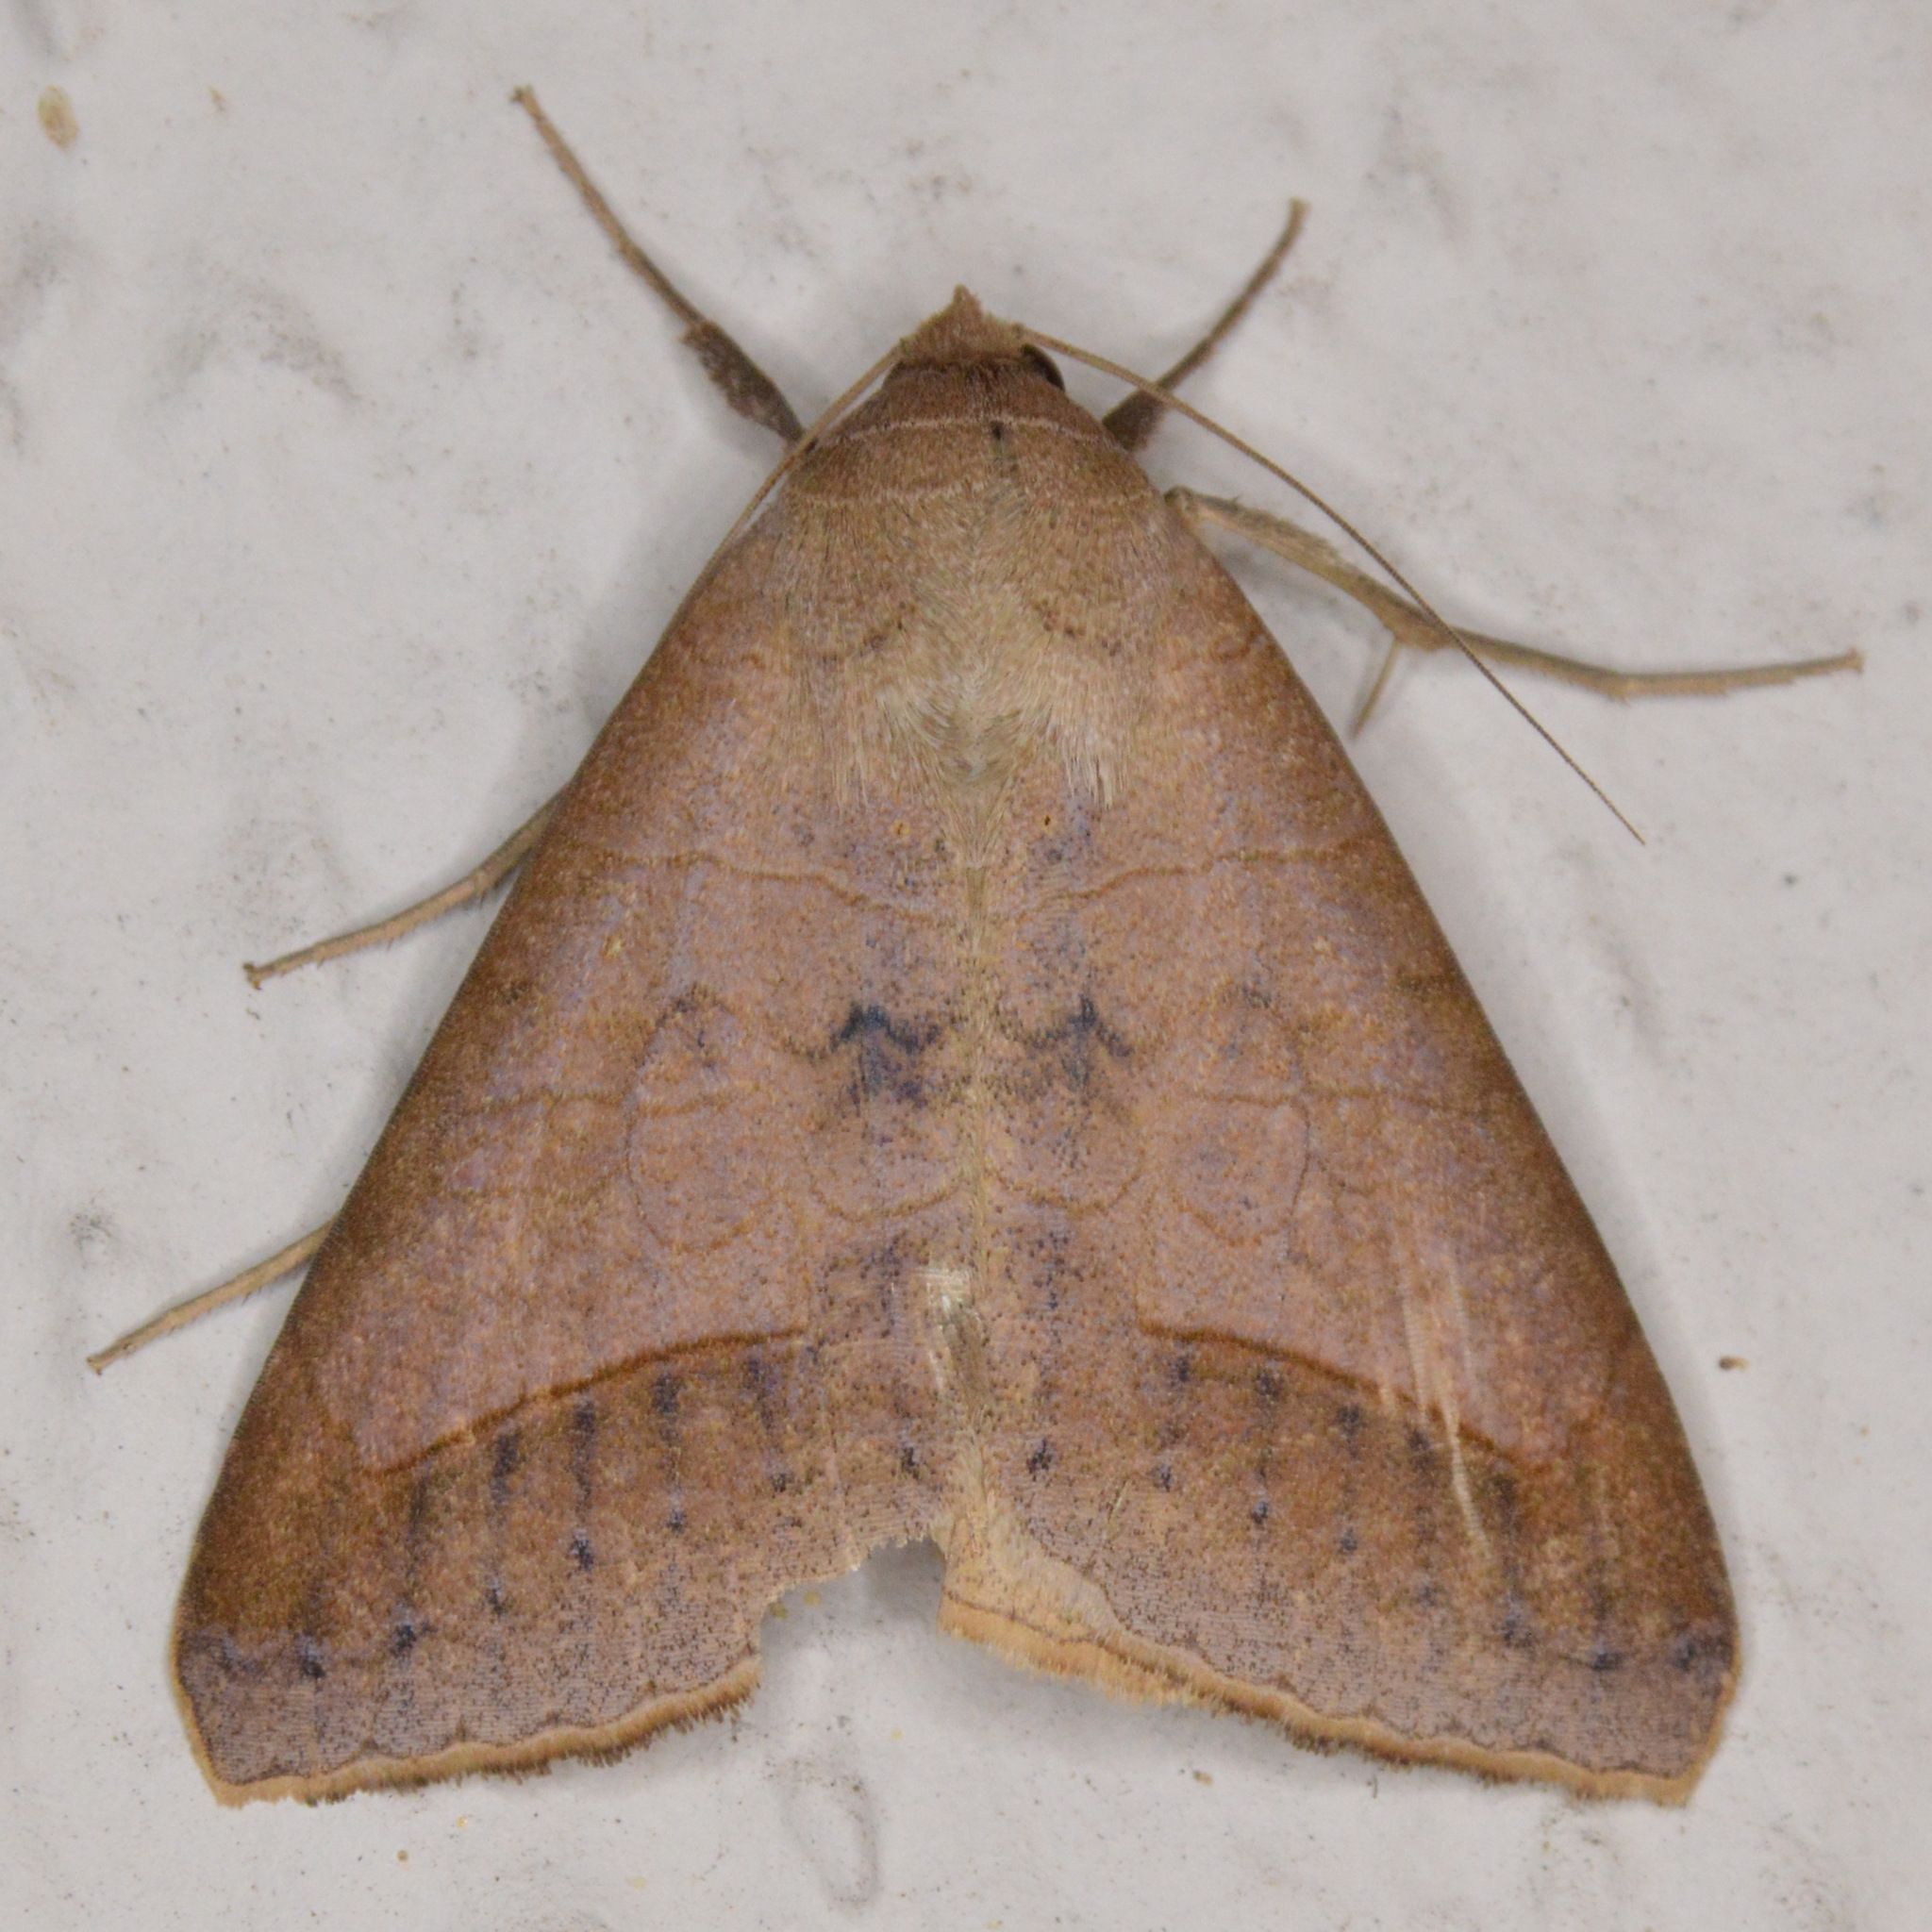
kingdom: Animalia
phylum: Arthropoda
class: Insecta
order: Lepidoptera
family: Erebidae
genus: Mocis
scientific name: Mocis marcida
